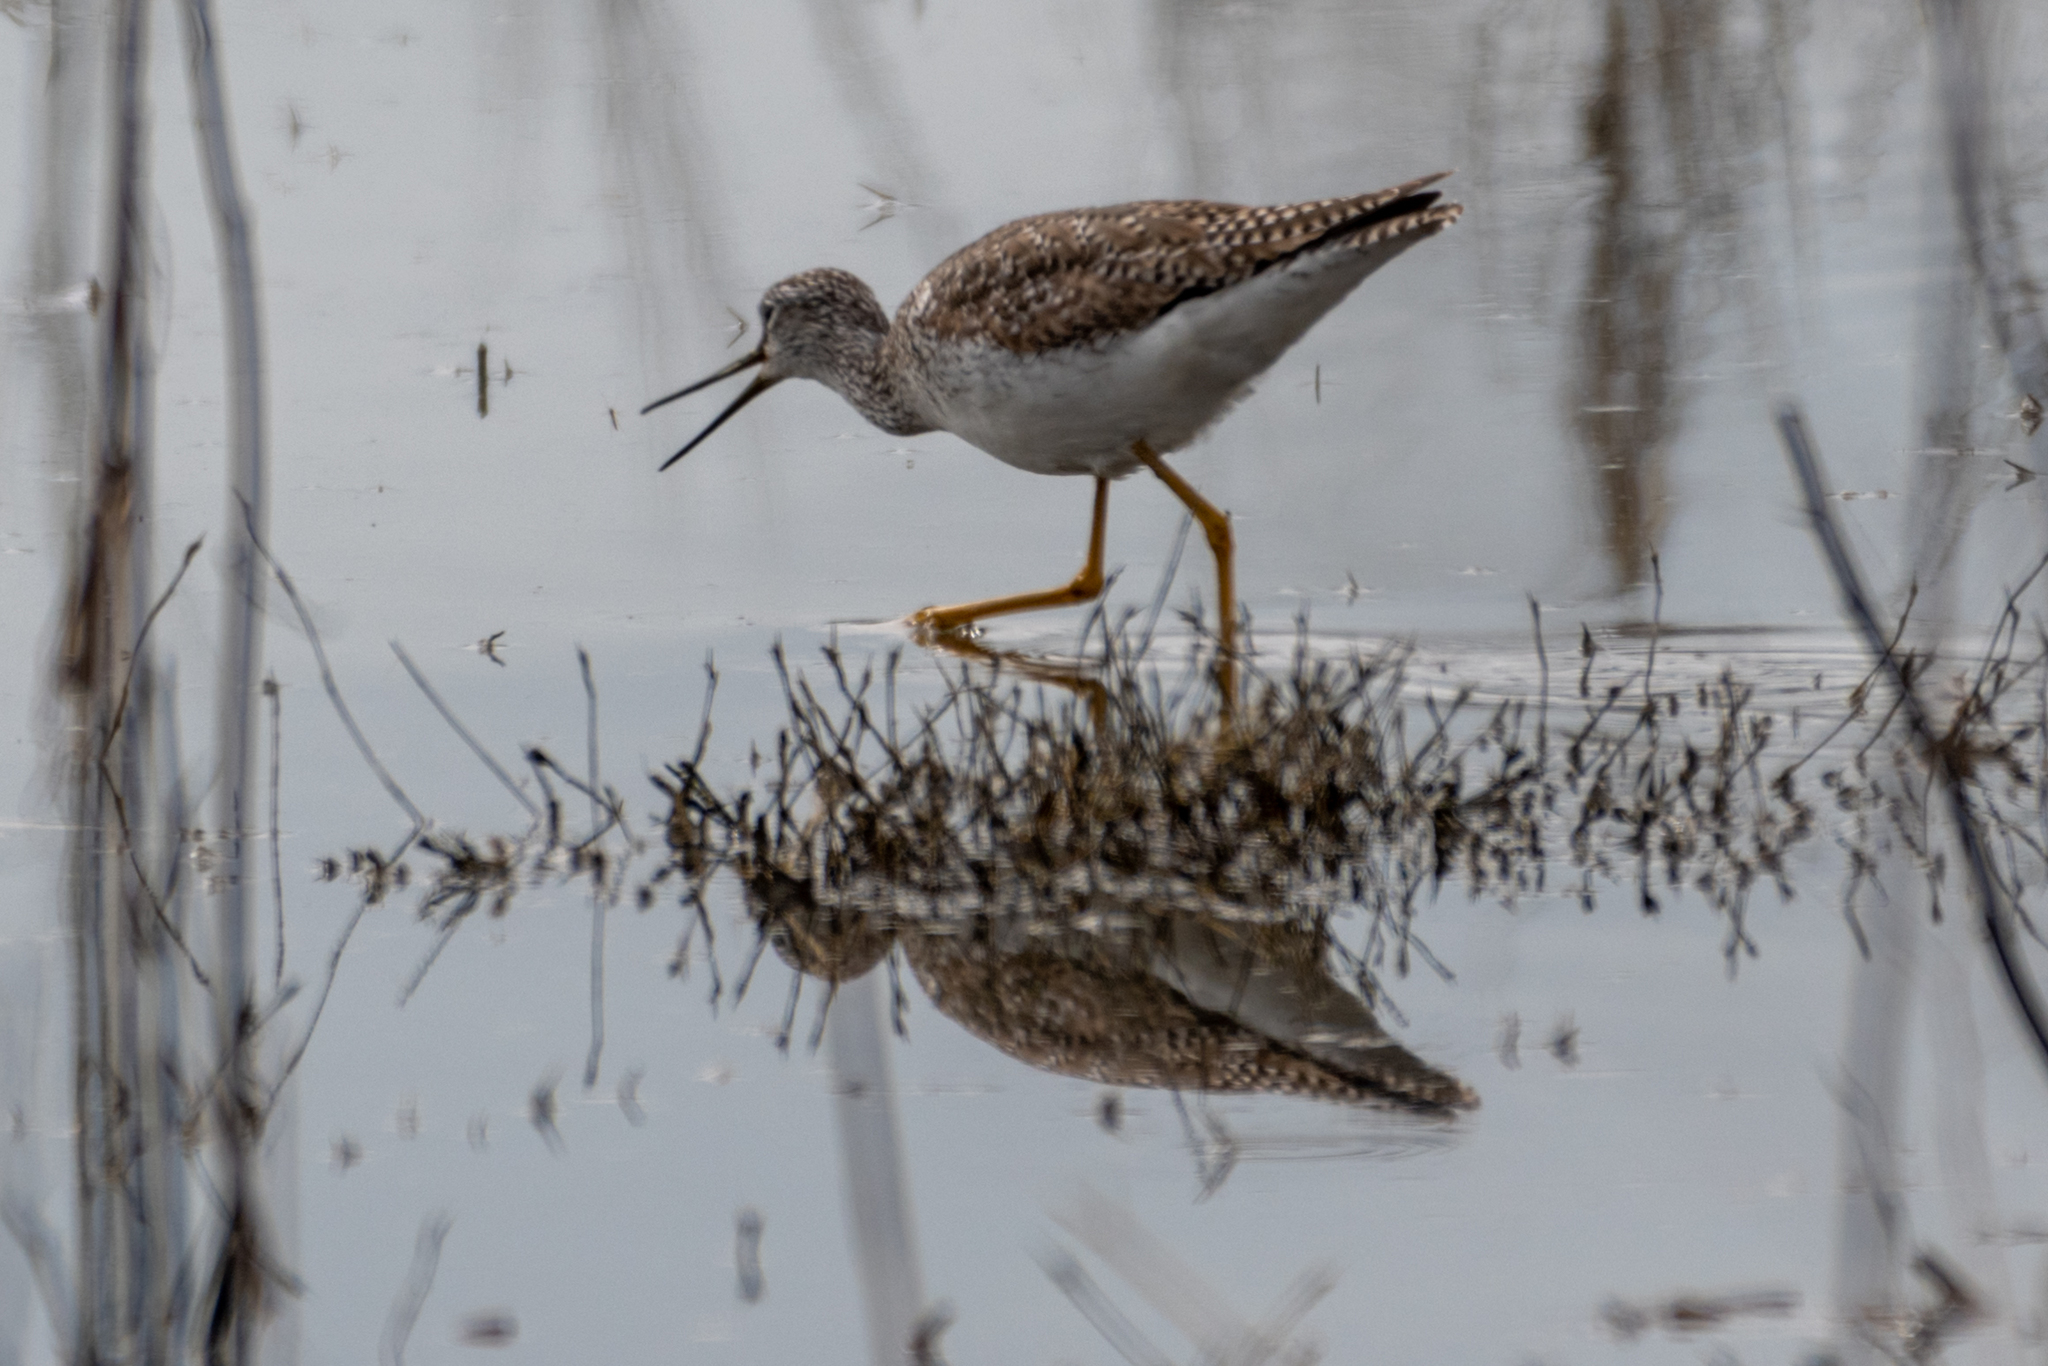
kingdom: Animalia
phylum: Chordata
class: Aves
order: Charadriiformes
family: Scolopacidae
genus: Tringa
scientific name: Tringa melanoleuca
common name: Greater yellowlegs
